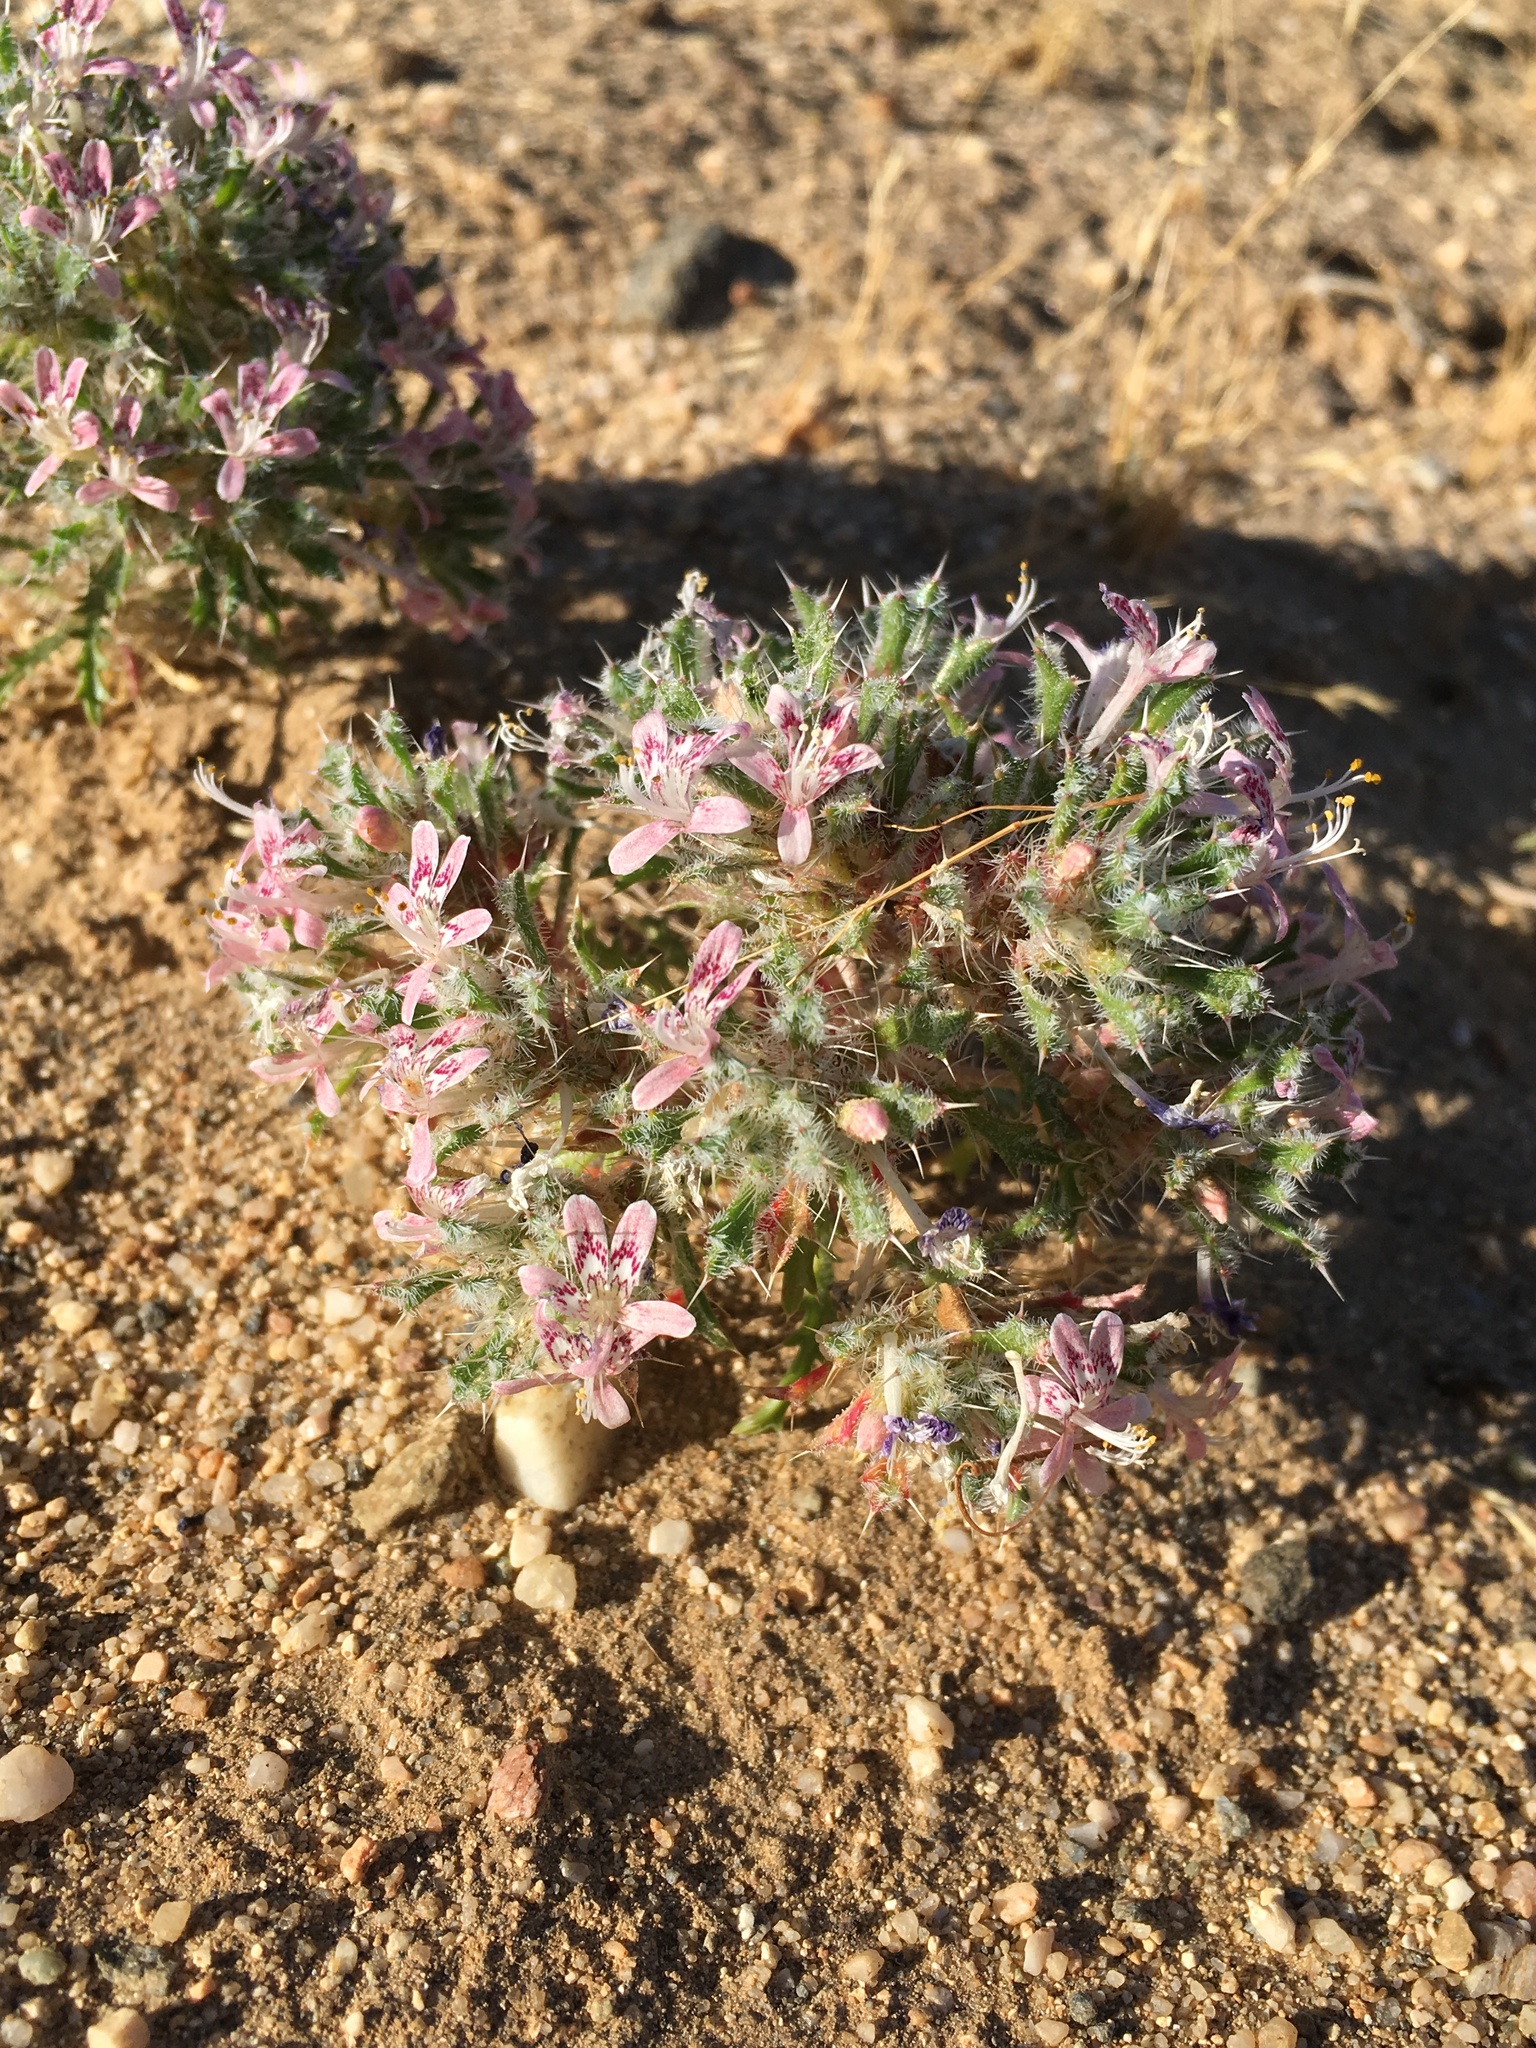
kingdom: Plantae
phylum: Tracheophyta
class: Magnoliopsida
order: Ericales
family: Polemoniaceae
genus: Loeseliastrum
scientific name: Loeseliastrum matthewsii
